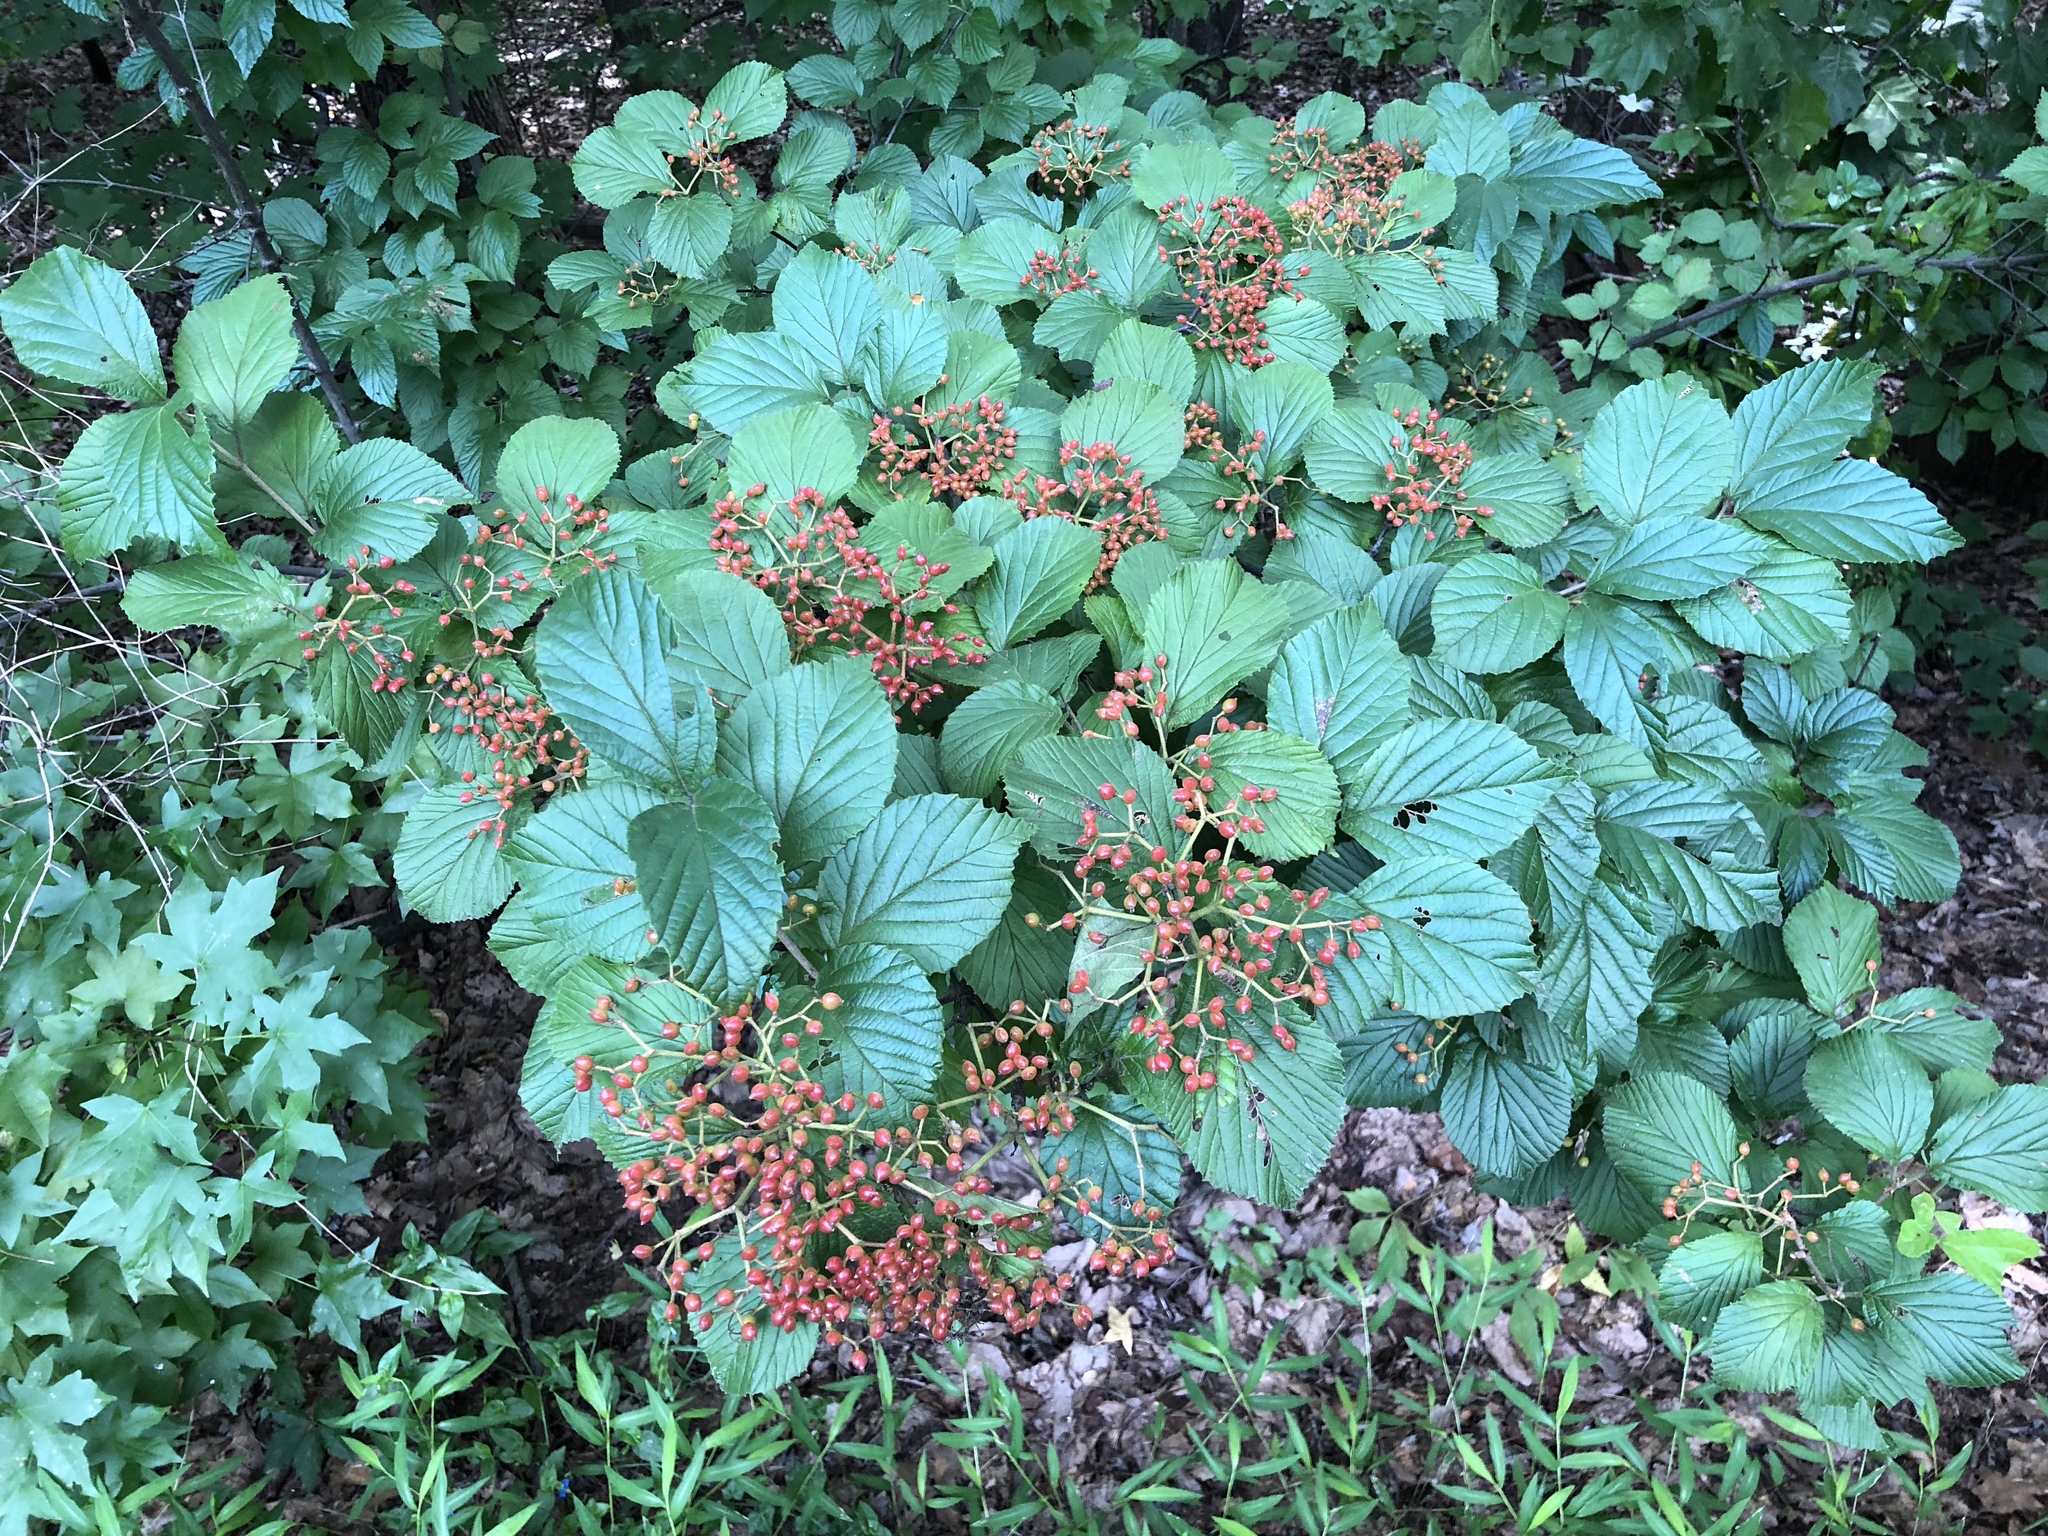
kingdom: Plantae
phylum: Tracheophyta
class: Magnoliopsida
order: Dipsacales
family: Viburnaceae
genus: Viburnum
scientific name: Viburnum dilatatum
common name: Linden arrowwood
